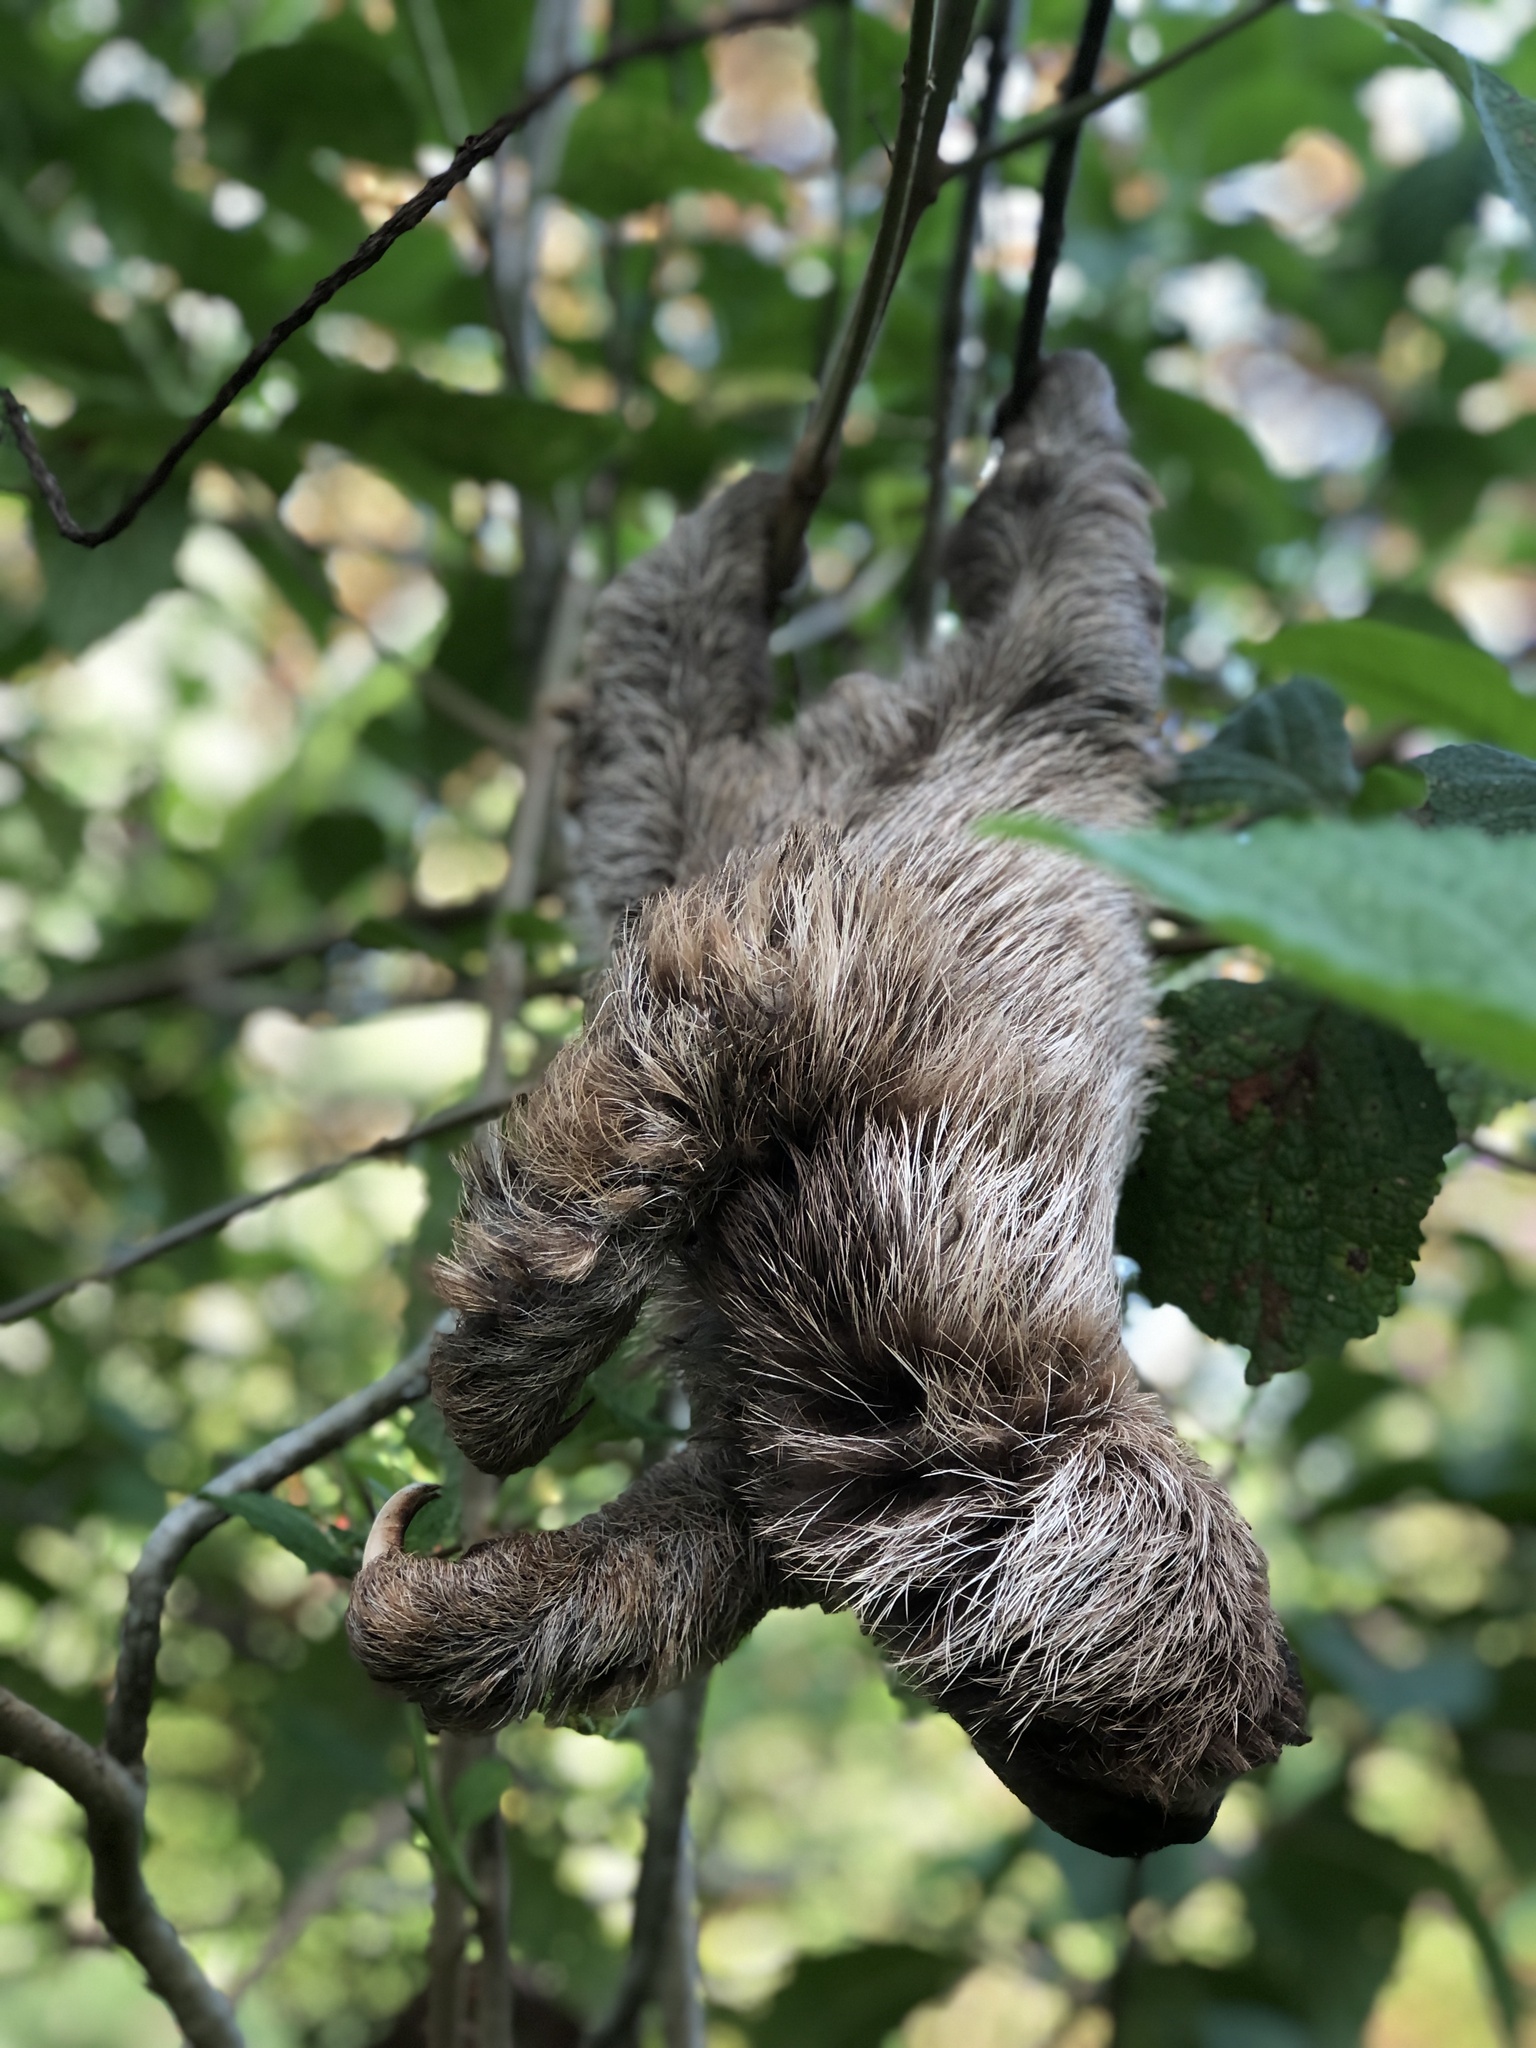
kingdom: Animalia
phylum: Chordata
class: Mammalia
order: Pilosa
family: Bradypodidae
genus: Bradypus
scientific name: Bradypus variegatus
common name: Brown-throated three-toed sloth
